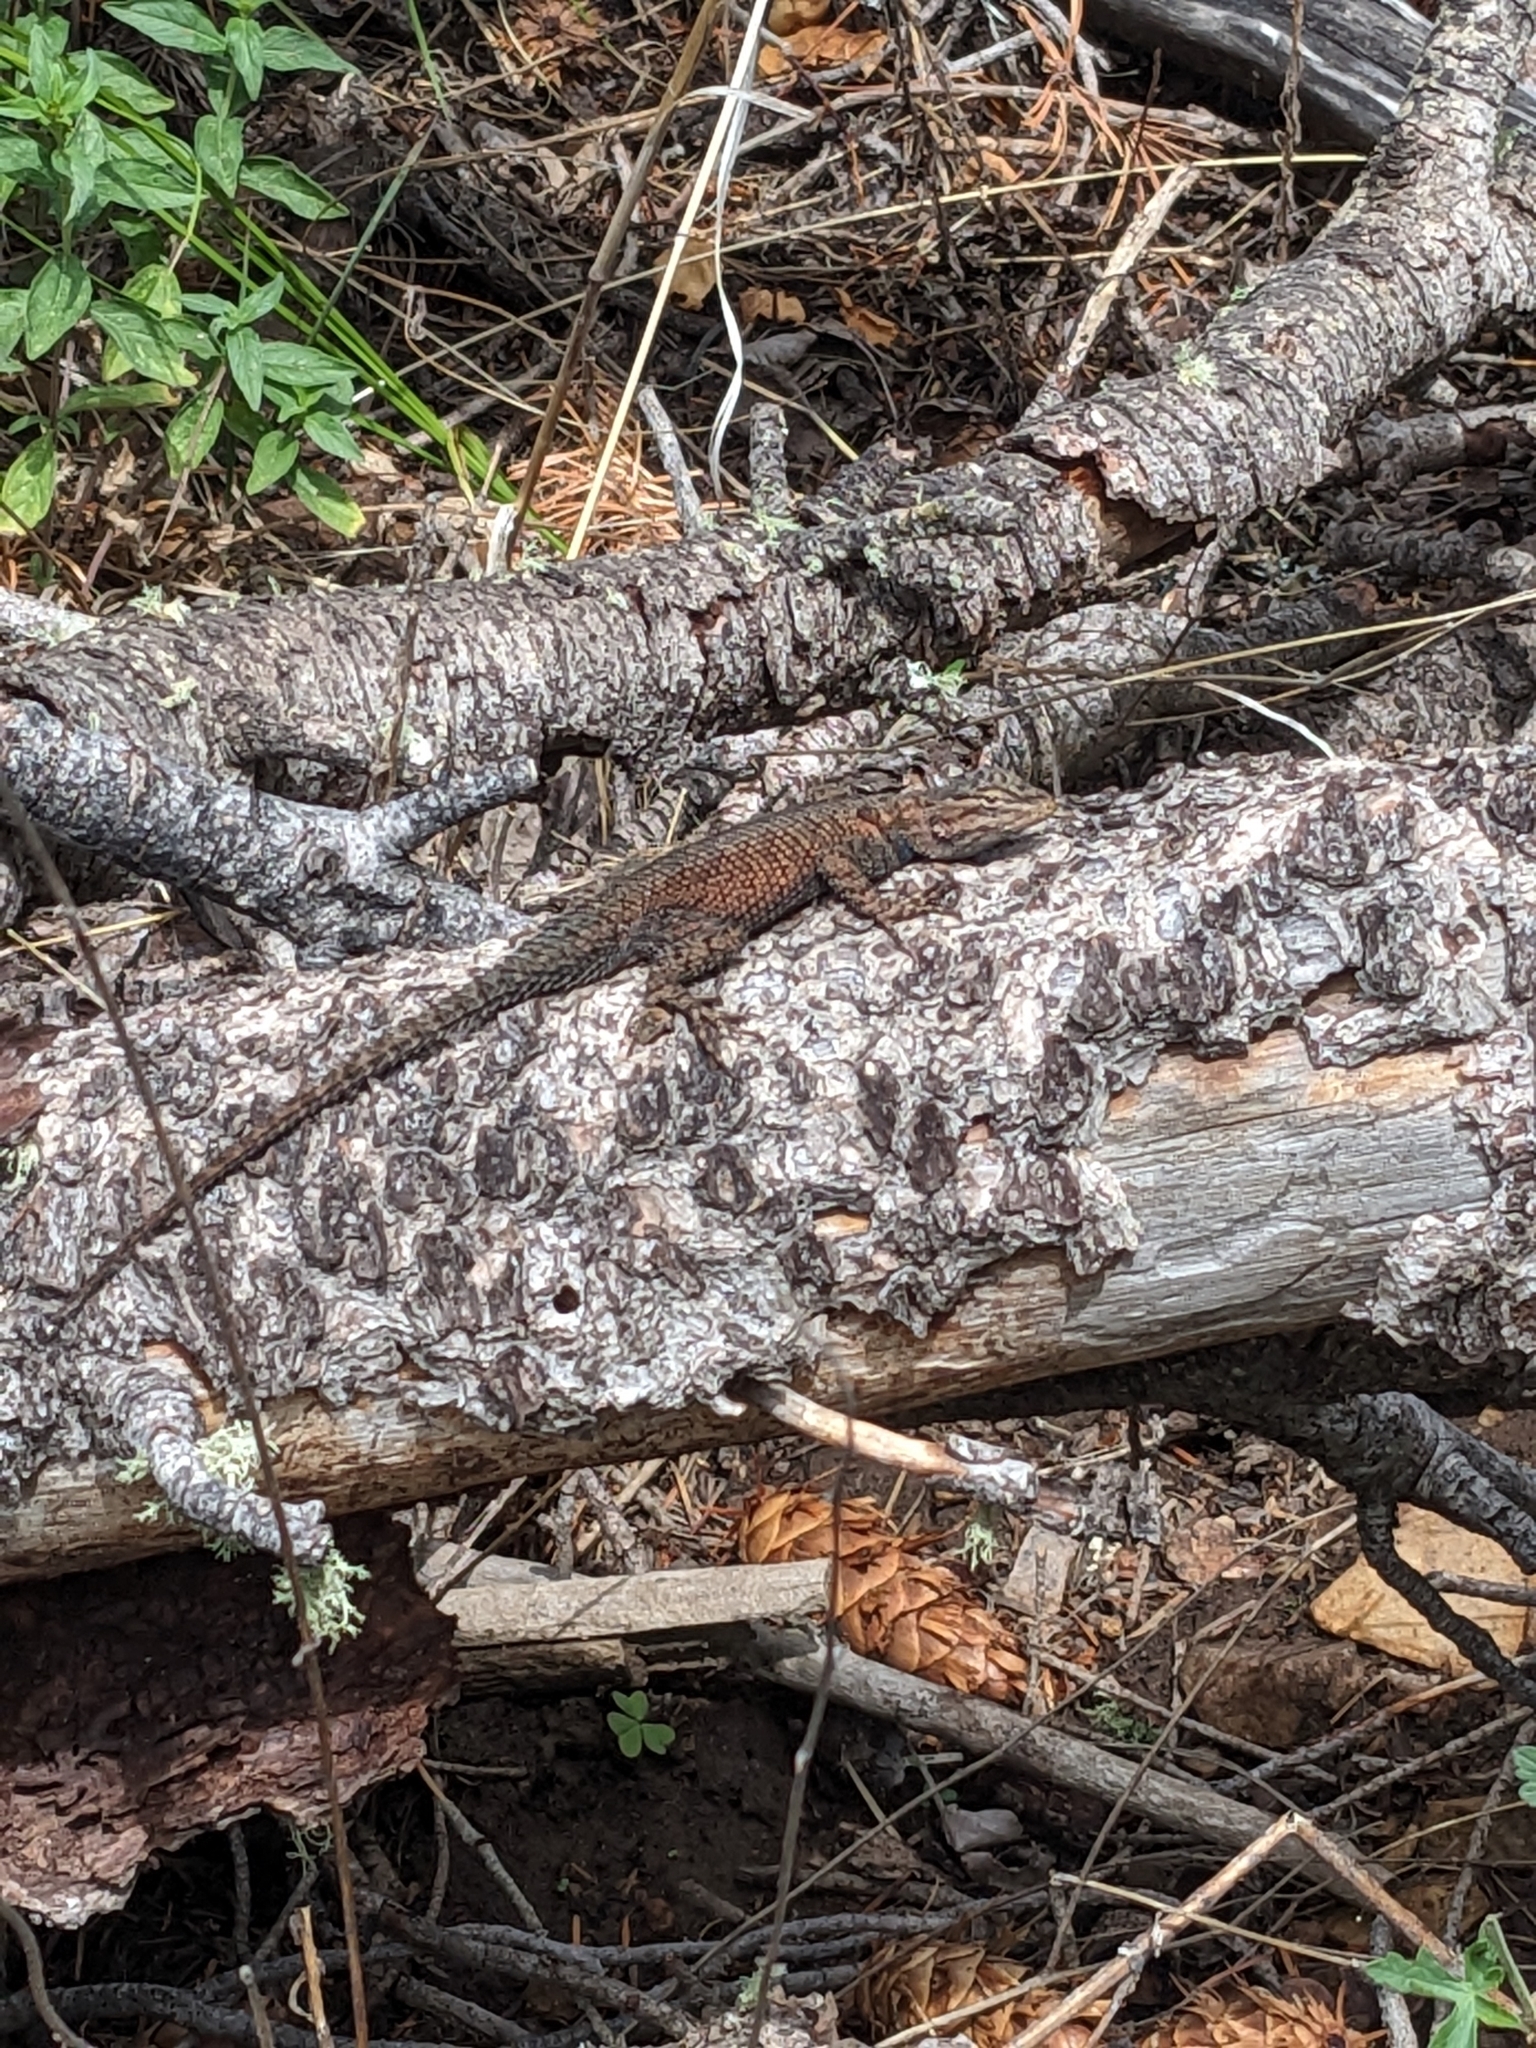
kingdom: Animalia
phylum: Chordata
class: Squamata
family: Phrynosomatidae
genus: Sceloporus
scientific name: Sceloporus jarrovii
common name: Yarrow's spiny lizard
